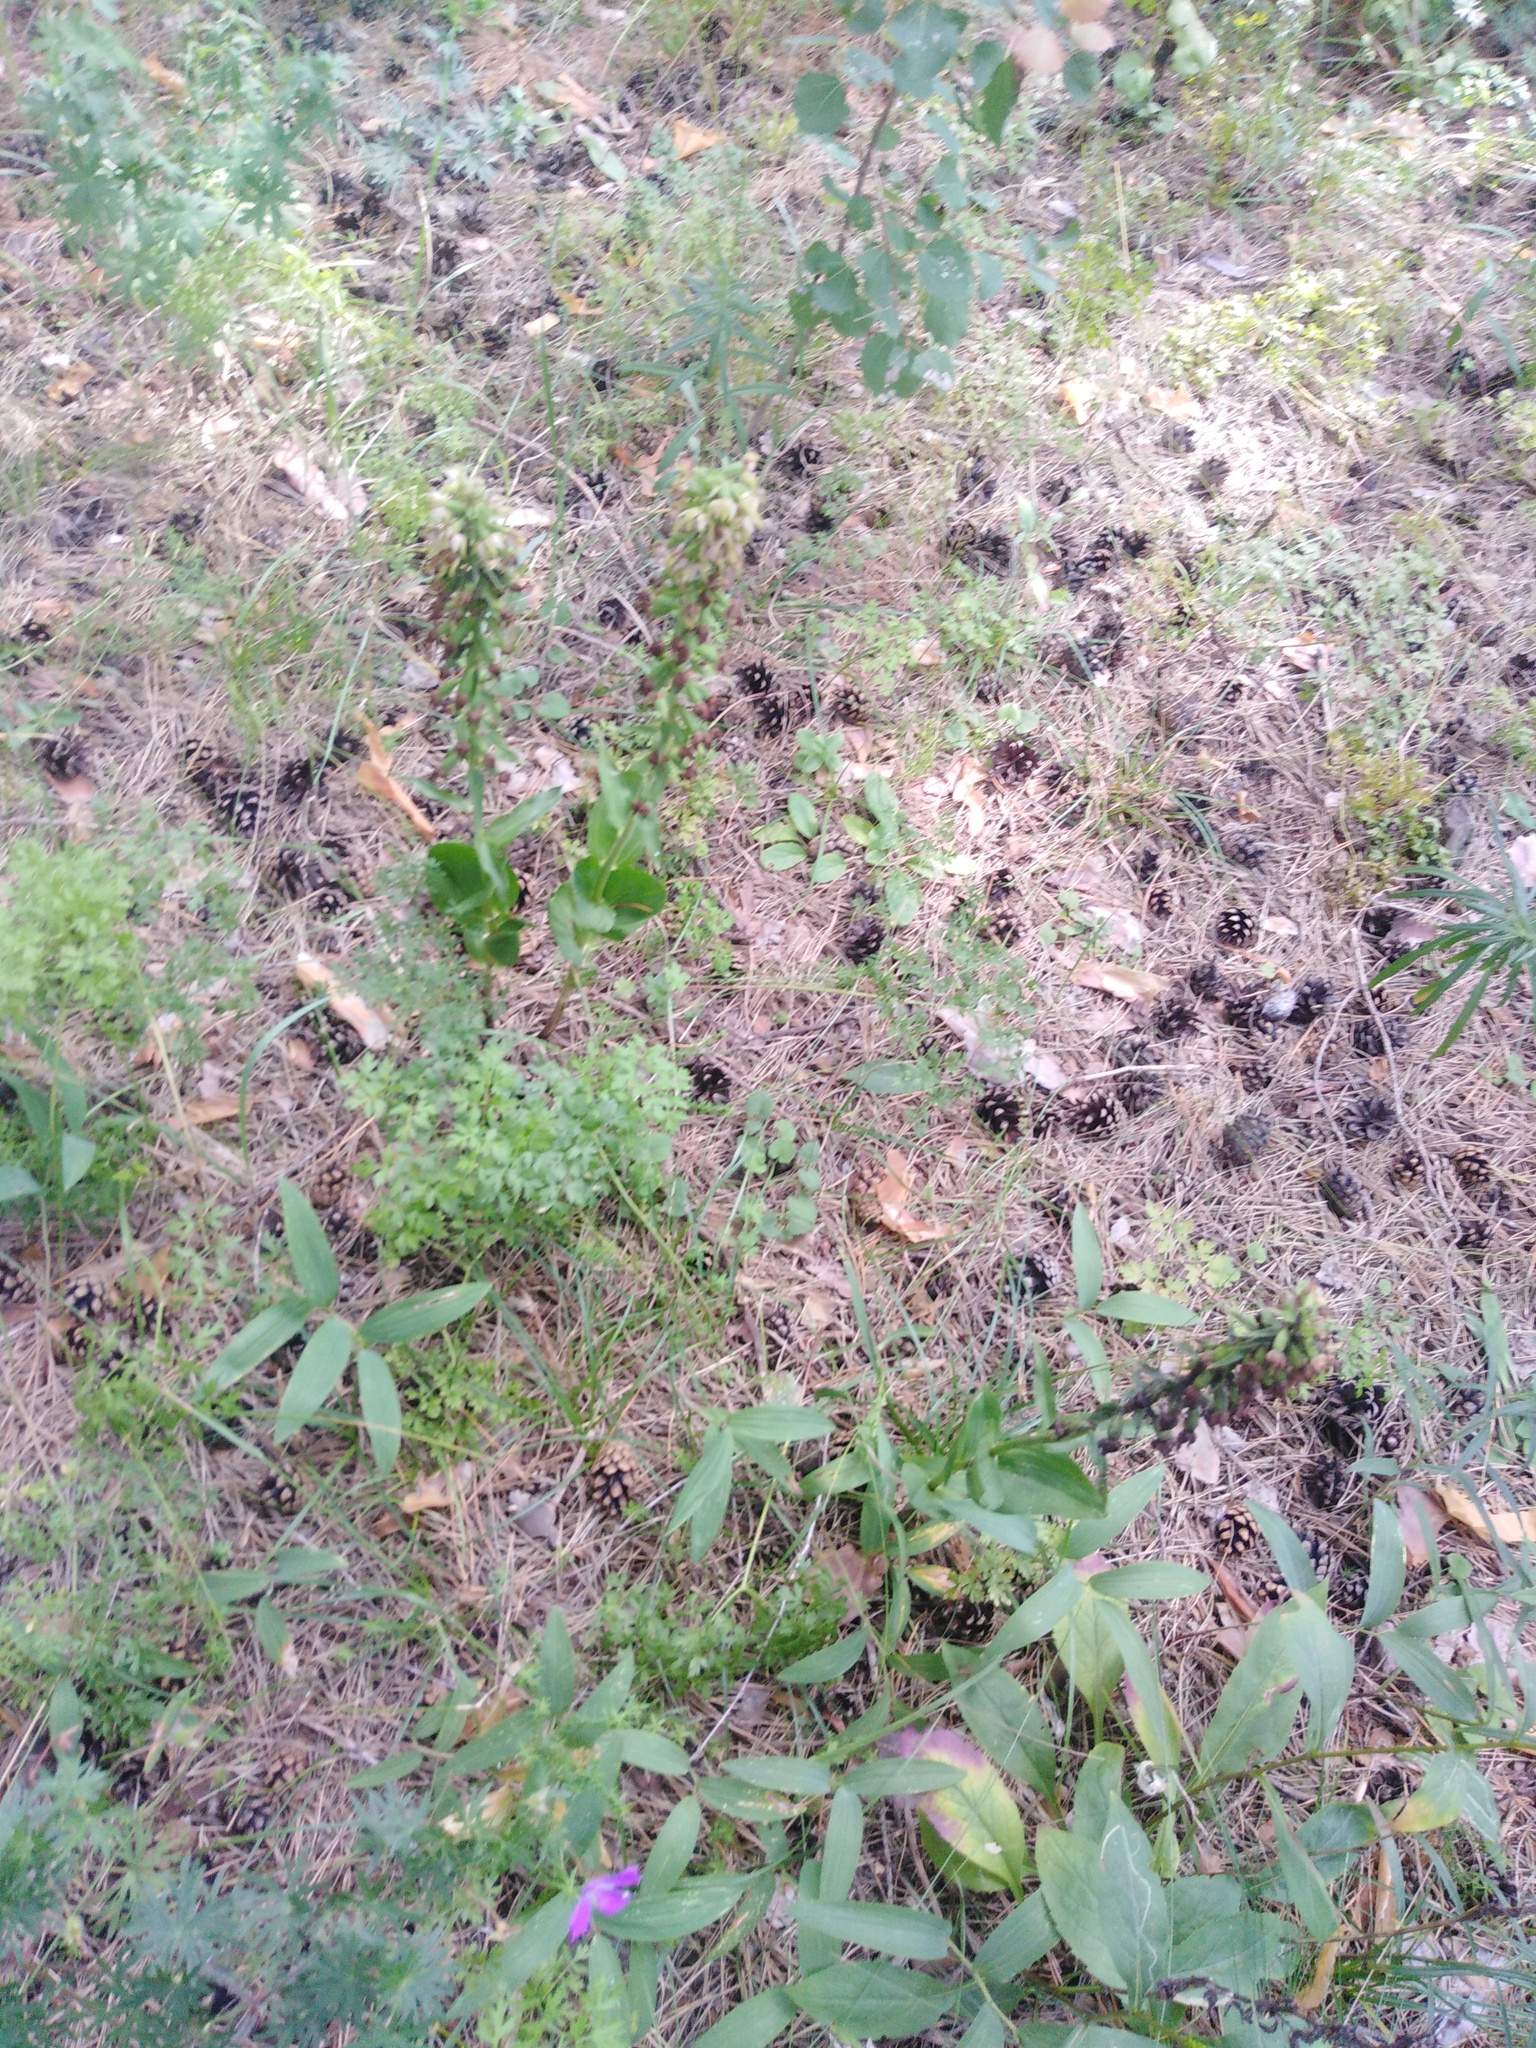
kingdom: Plantae
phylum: Tracheophyta
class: Liliopsida
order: Asparagales
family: Orchidaceae
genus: Epipactis
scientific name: Epipactis helleborine
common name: Broad-leaved helleborine
